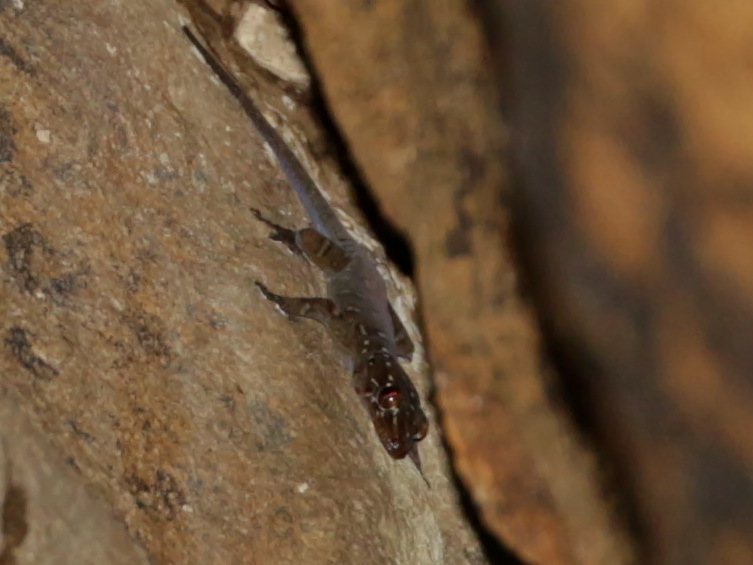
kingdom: Animalia
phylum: Chordata
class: Squamata
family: Gekkonidae
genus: Gehyra
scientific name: Gehyra angusticaudata
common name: Narrow-tailed four-clawed gecko
